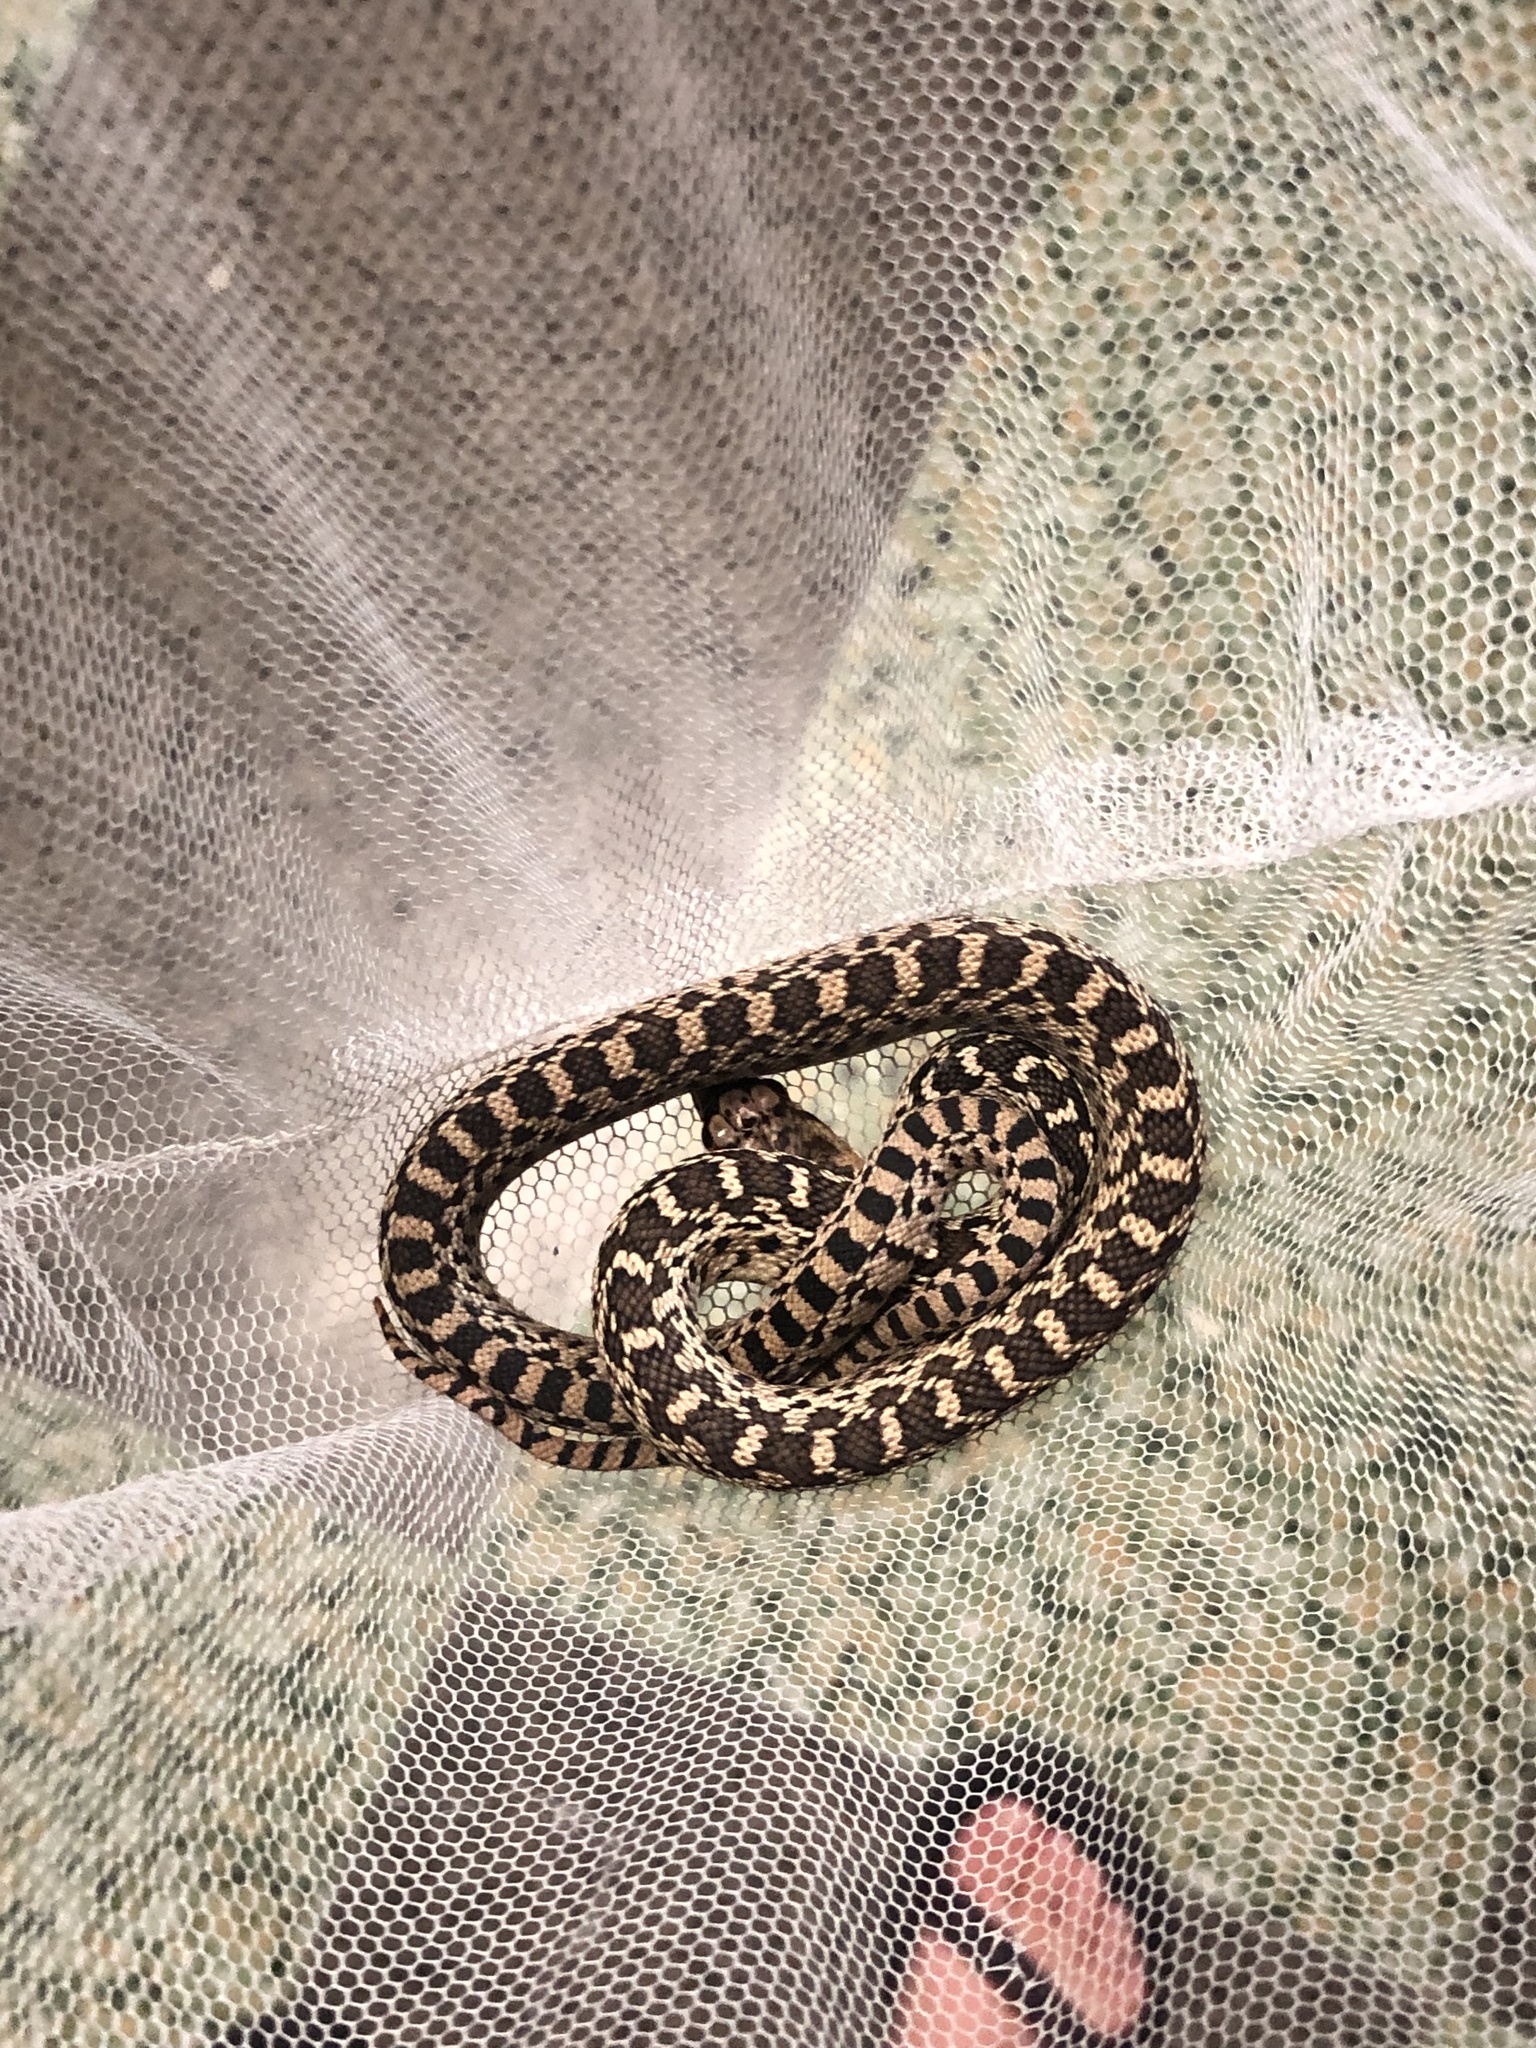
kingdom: Animalia
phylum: Chordata
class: Squamata
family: Colubridae
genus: Pituophis
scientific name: Pituophis catenifer
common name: Gopher snake
